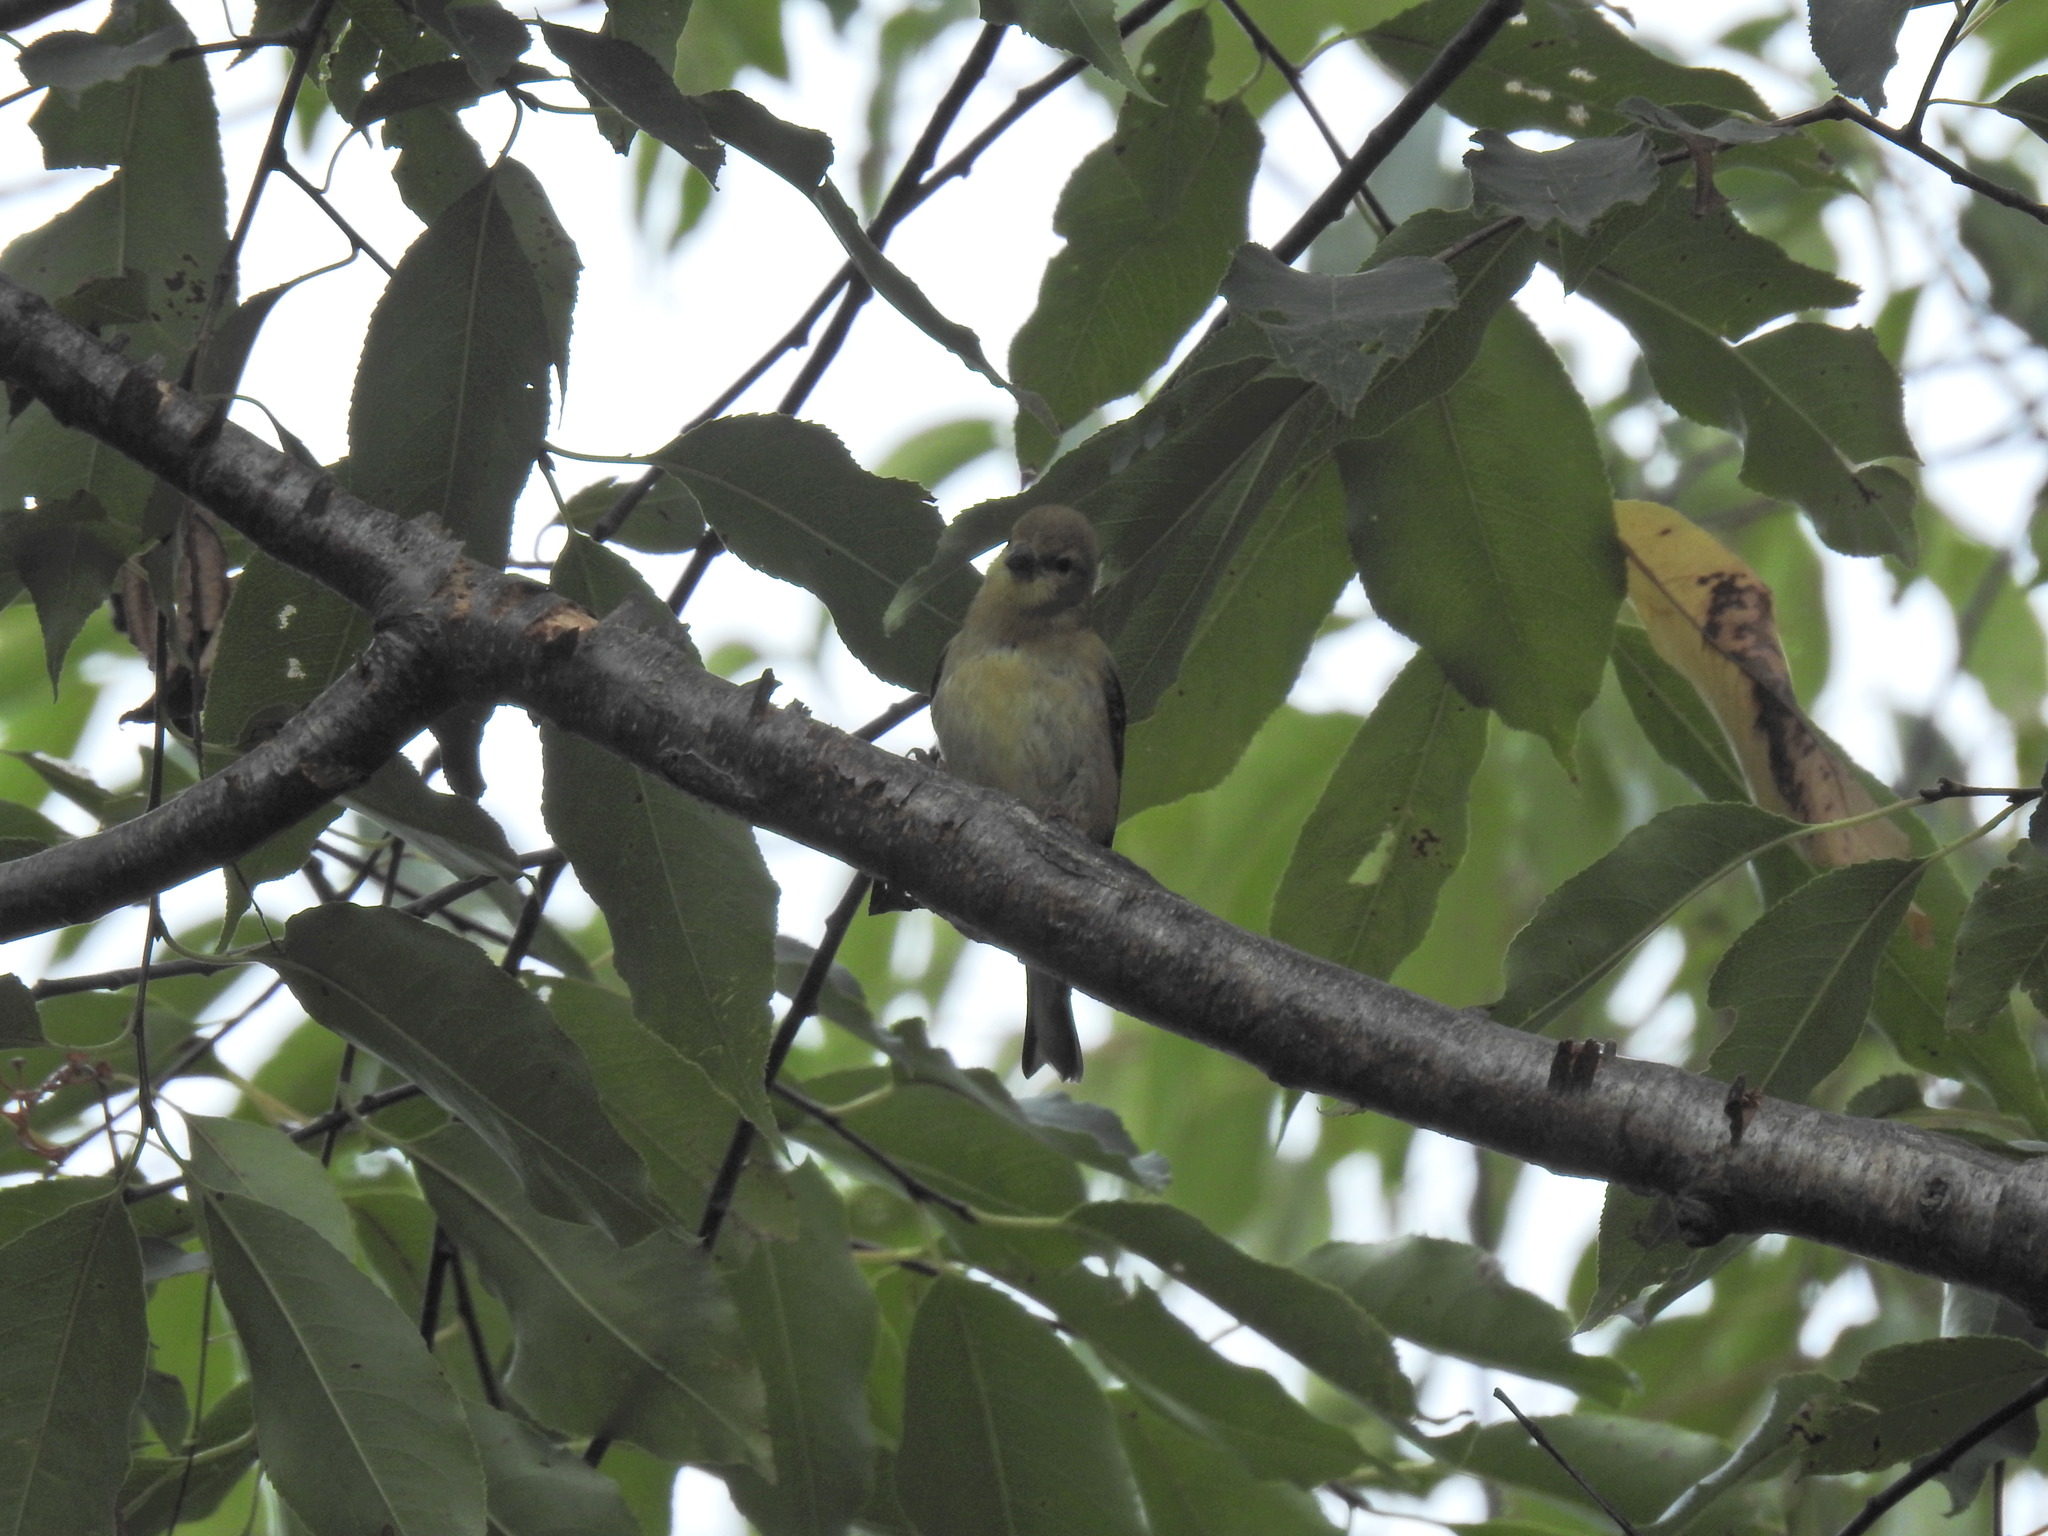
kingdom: Animalia
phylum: Chordata
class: Aves
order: Passeriformes
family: Fringillidae
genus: Spinus
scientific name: Spinus tristis
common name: American goldfinch
